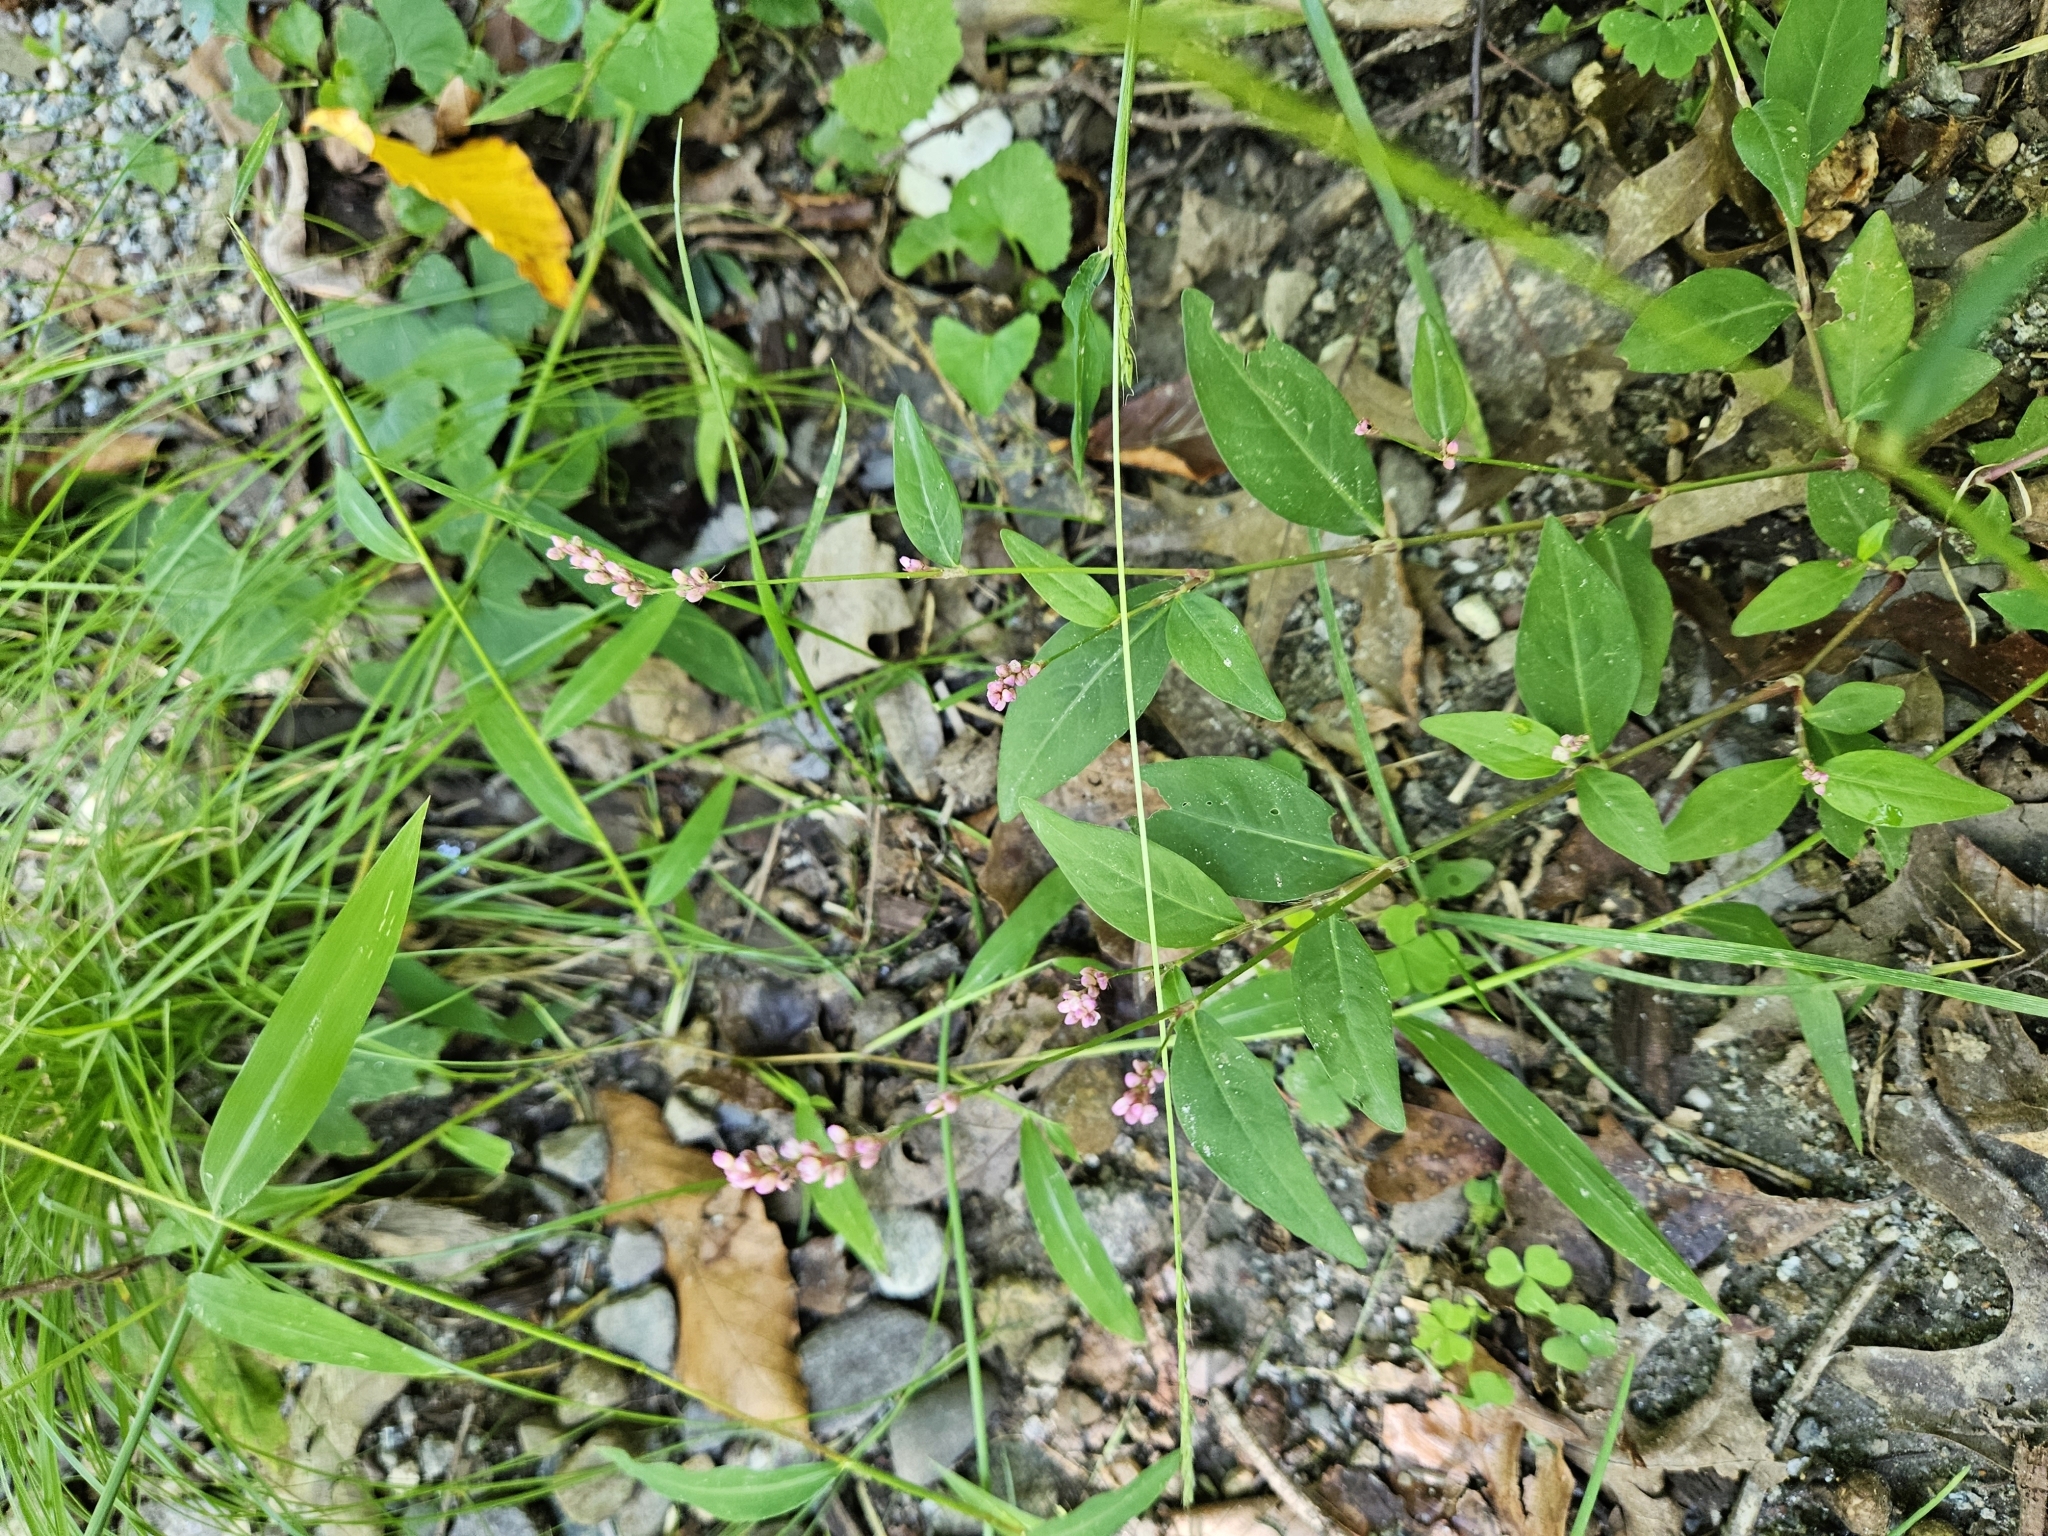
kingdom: Plantae
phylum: Tracheophyta
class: Magnoliopsida
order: Caryophyllales
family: Polygonaceae
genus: Persicaria
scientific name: Persicaria longiseta
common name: Bristly lady's-thumb
